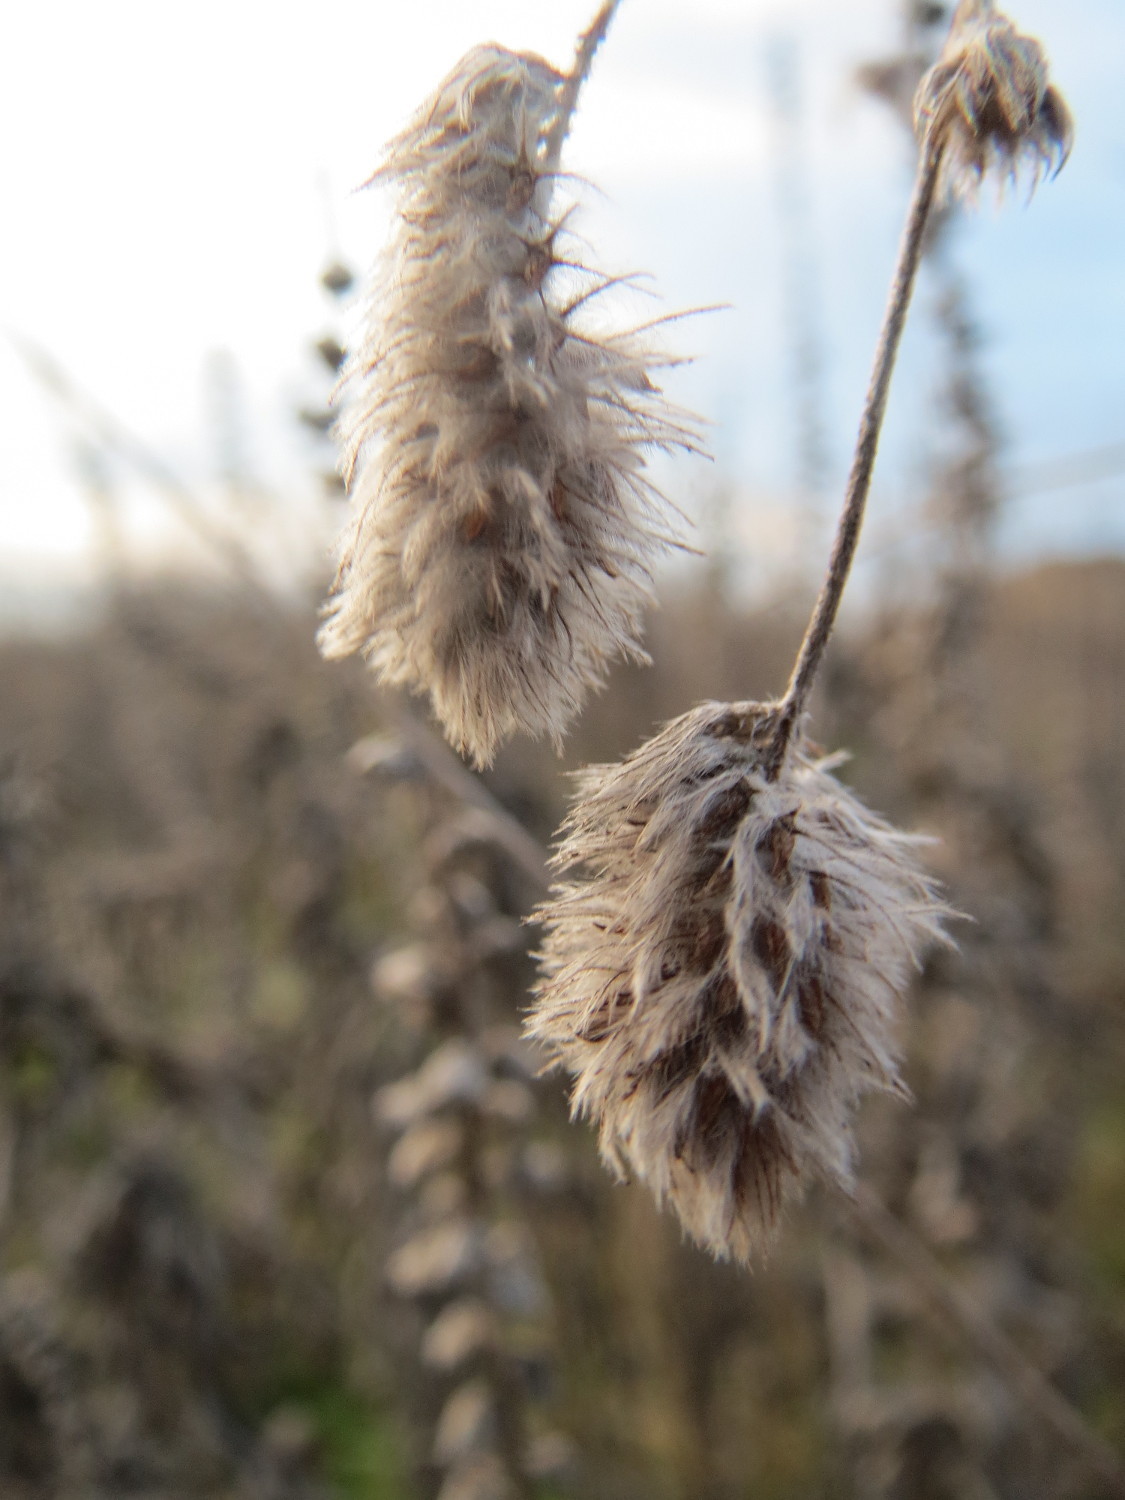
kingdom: Plantae
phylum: Tracheophyta
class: Magnoliopsida
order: Fabales
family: Fabaceae
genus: Trifolium
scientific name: Trifolium arvense
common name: Hare's-foot clover
